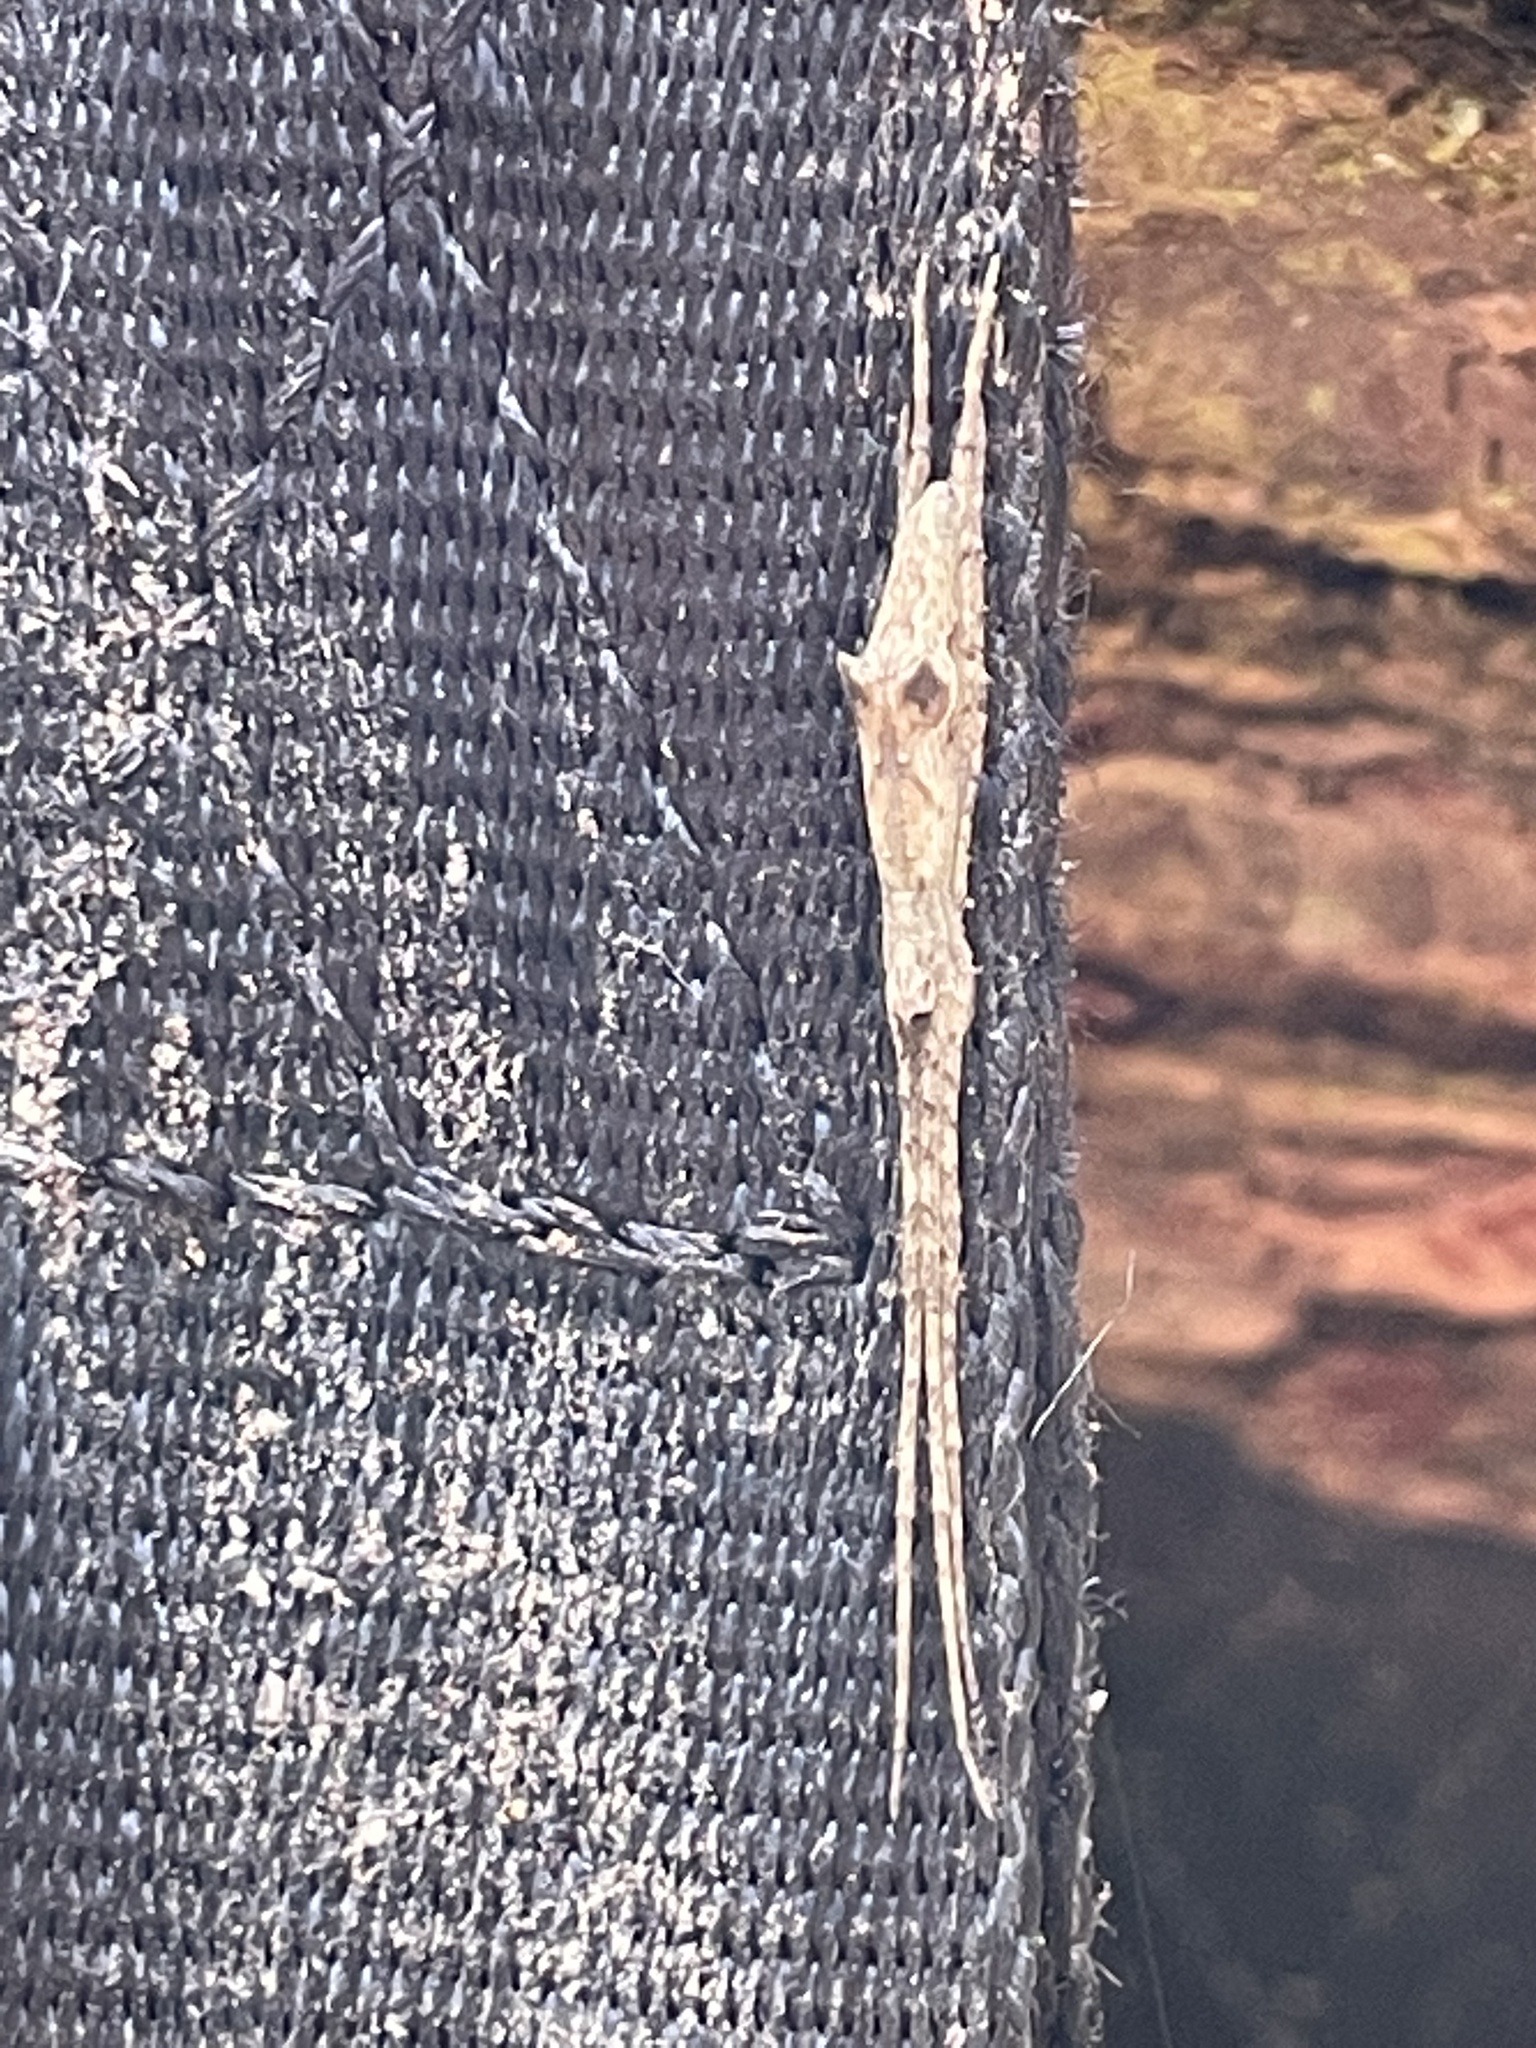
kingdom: Animalia
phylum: Arthropoda
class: Arachnida
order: Araneae
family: Deinopidae
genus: Deinopis
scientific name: Deinopis spinosa
